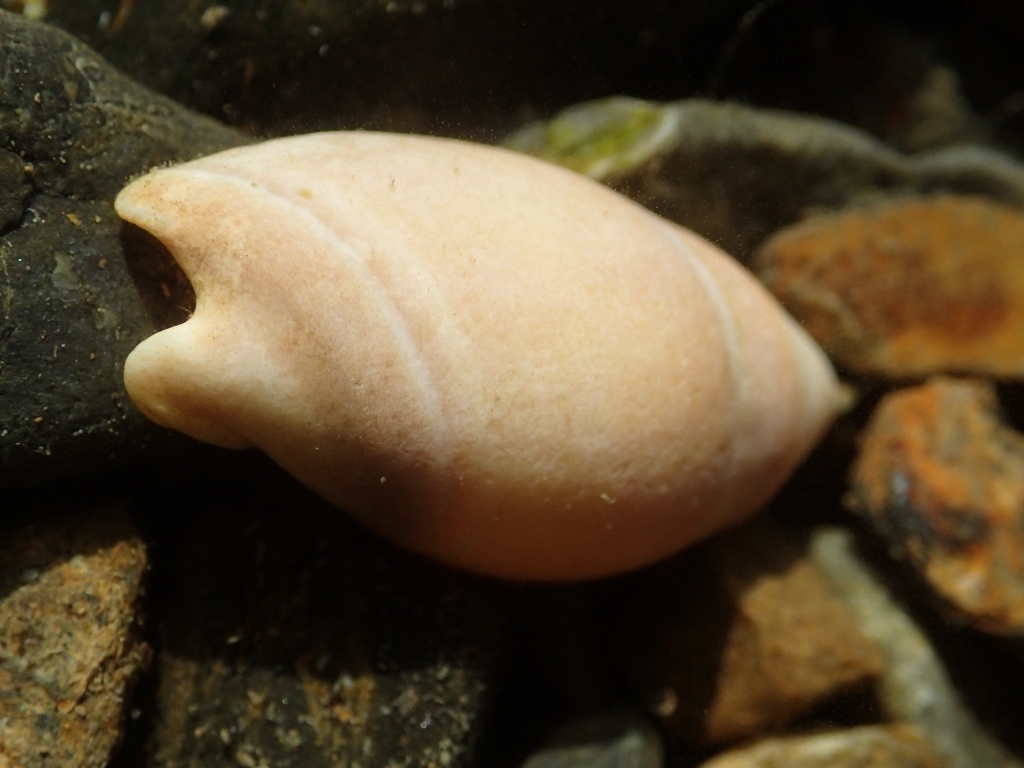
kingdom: Animalia
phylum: Mollusca
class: Gastropoda
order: Neogastropoda
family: Ancillariidae
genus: Amalda
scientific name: Amalda mucronata
